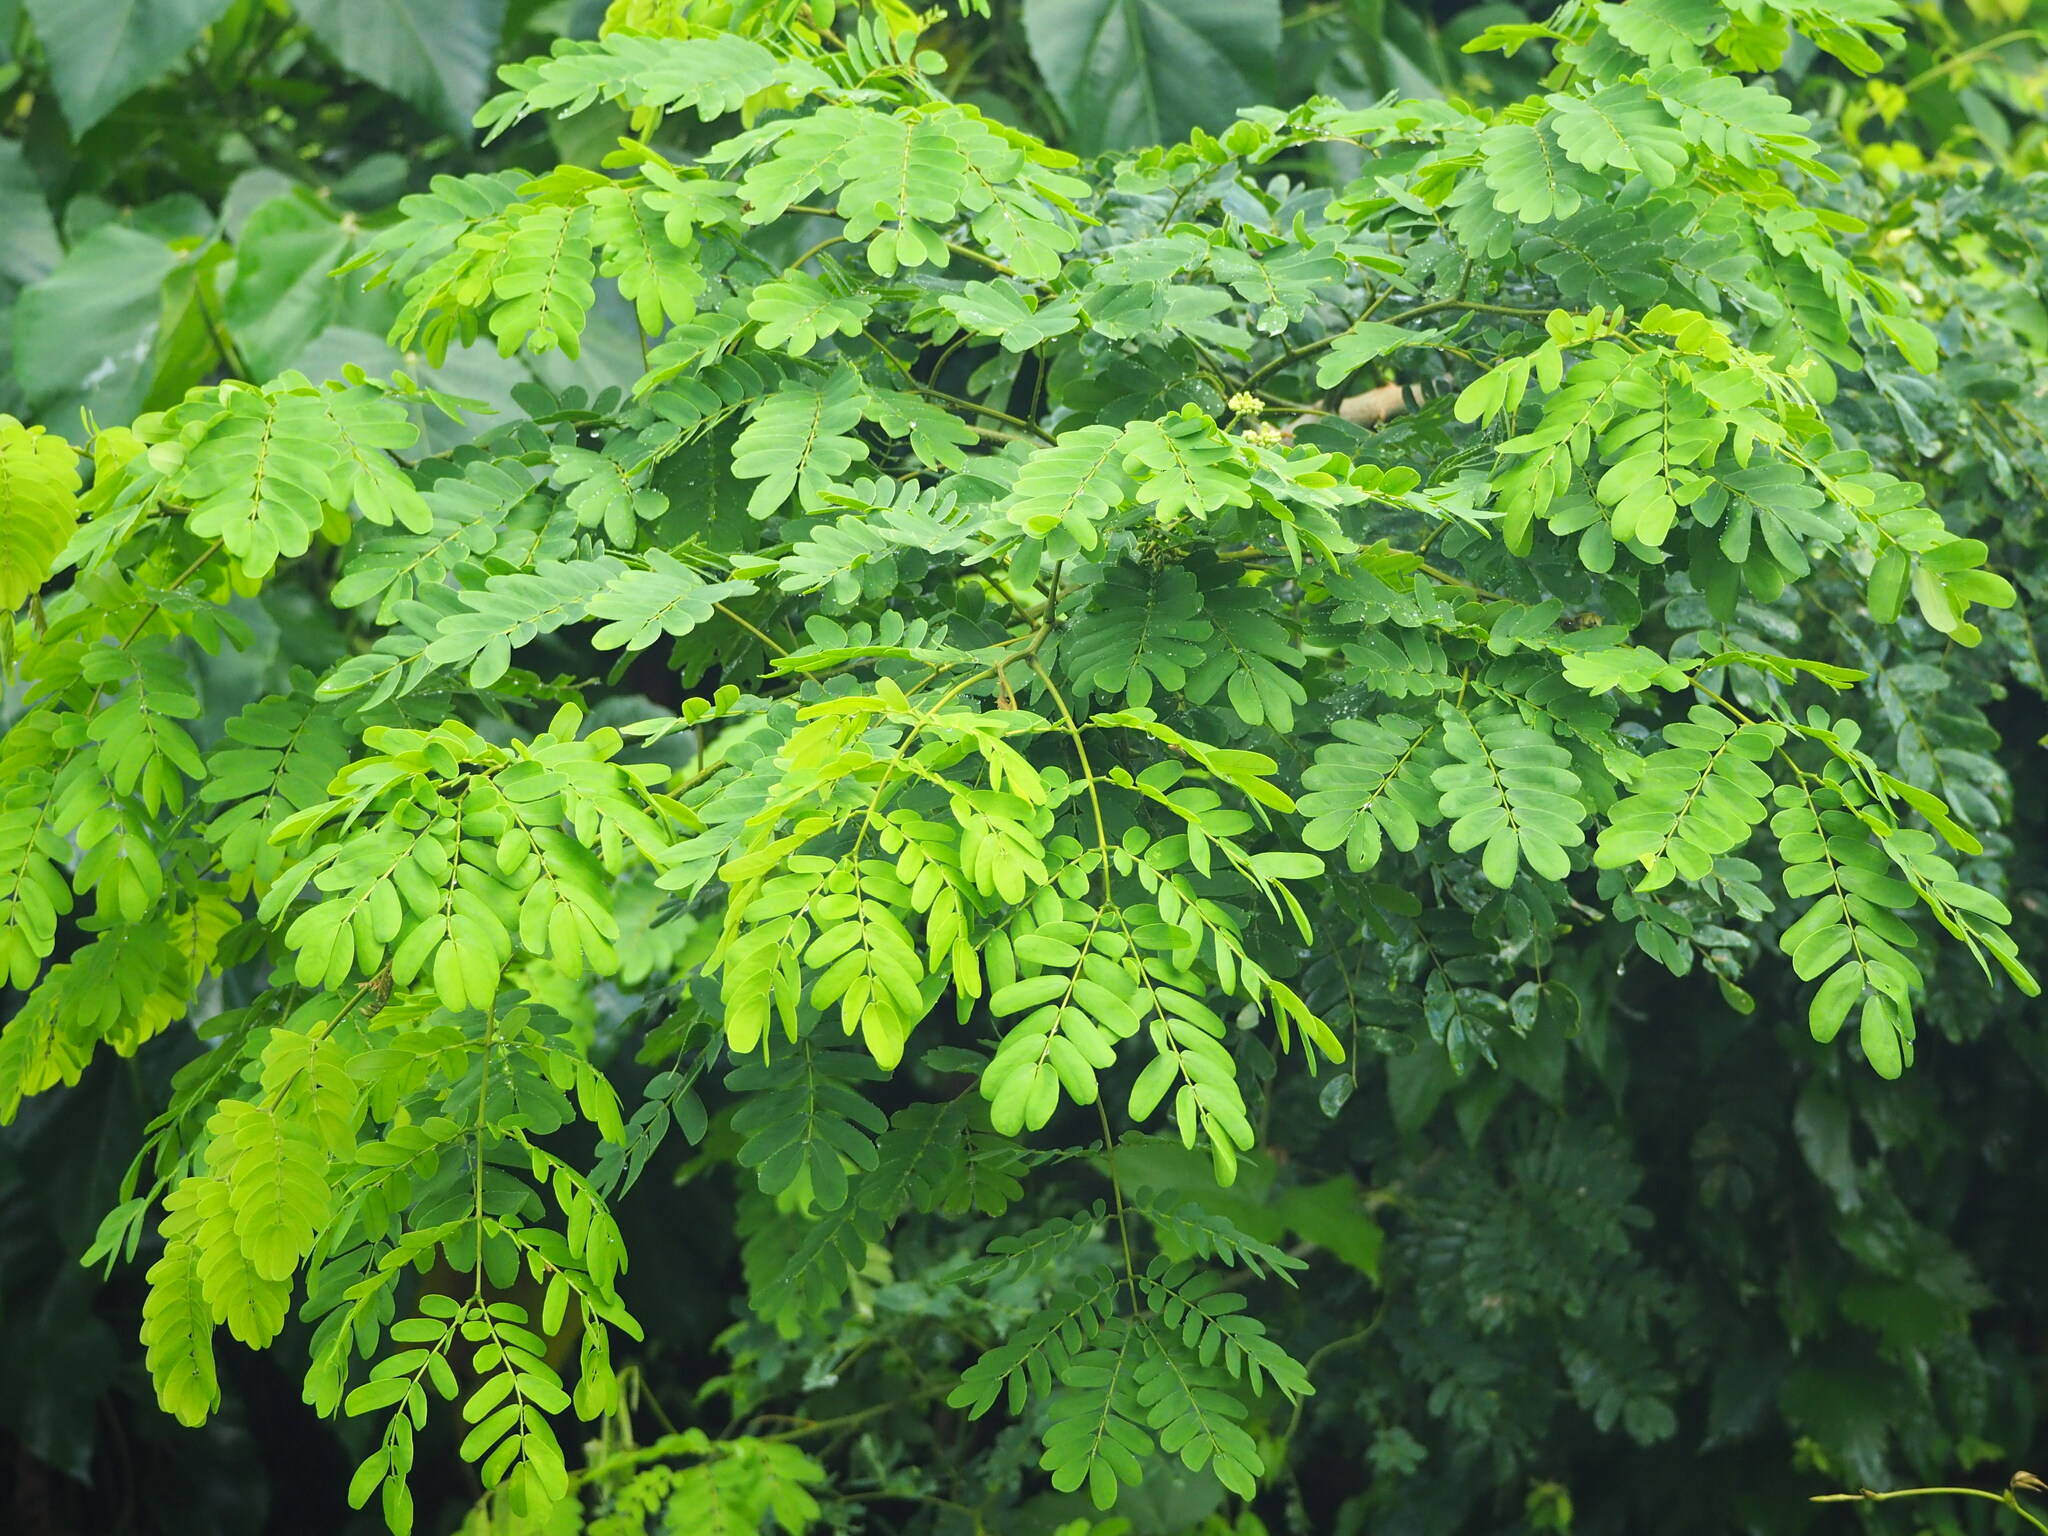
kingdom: Plantae
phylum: Tracheophyta
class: Magnoliopsida
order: Fabales
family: Fabaceae
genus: Albizia
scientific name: Albizia lebbeck
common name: Woman's tongue
